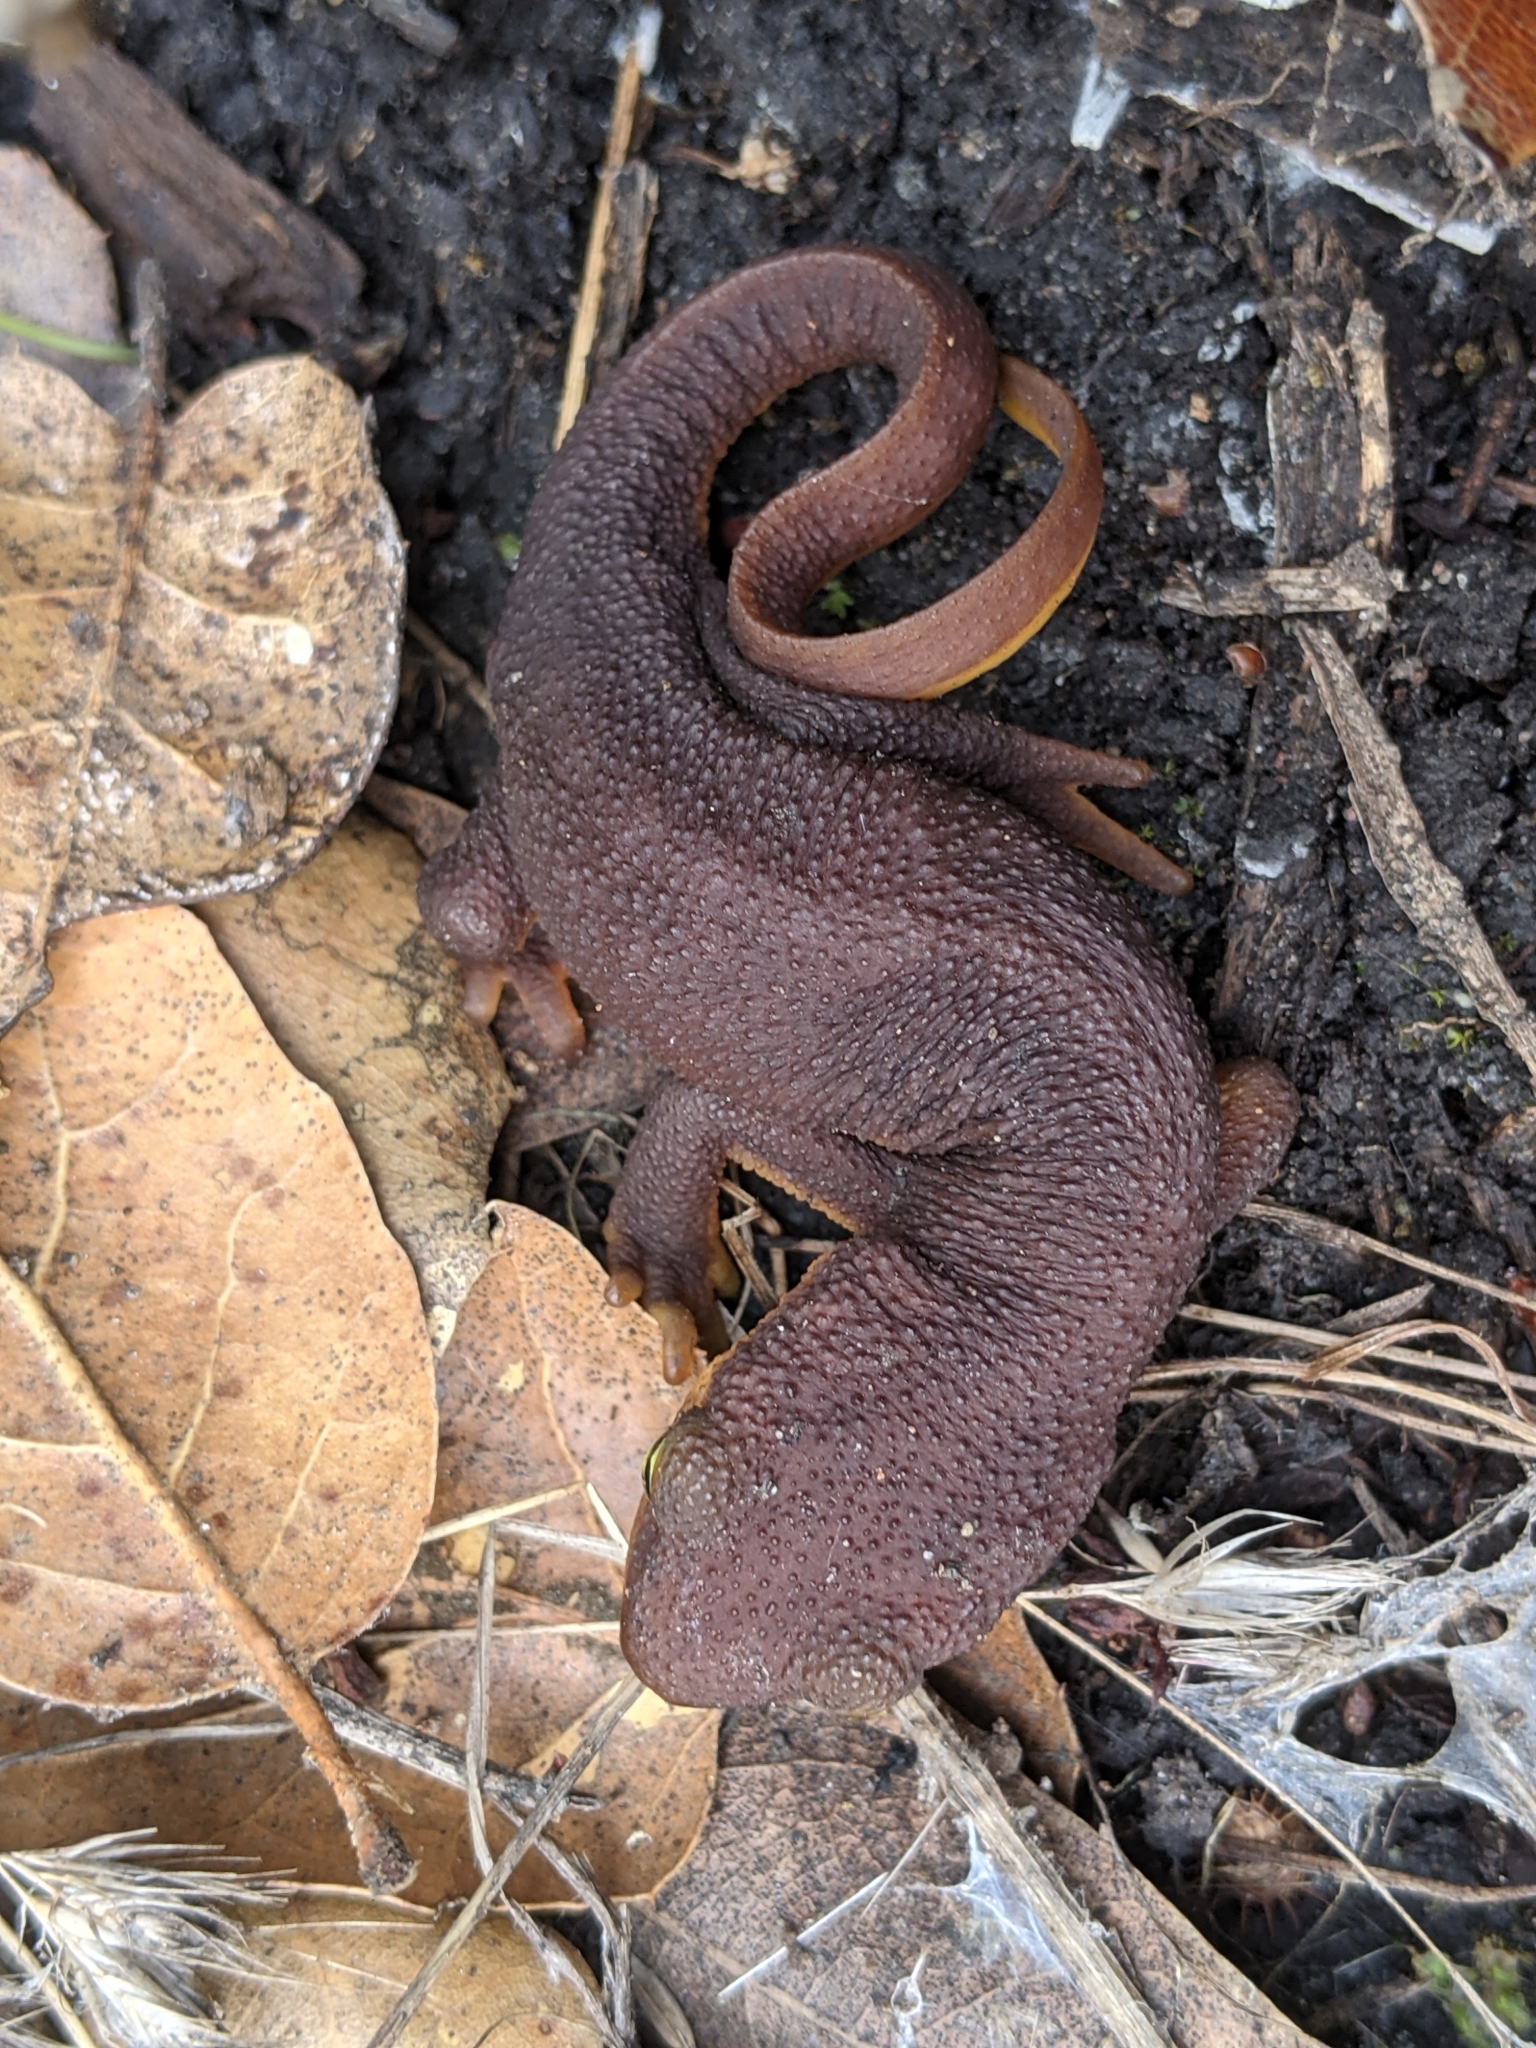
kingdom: Animalia
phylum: Chordata
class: Amphibia
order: Caudata
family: Salamandridae
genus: Taricha
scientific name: Taricha torosa
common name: California newt
